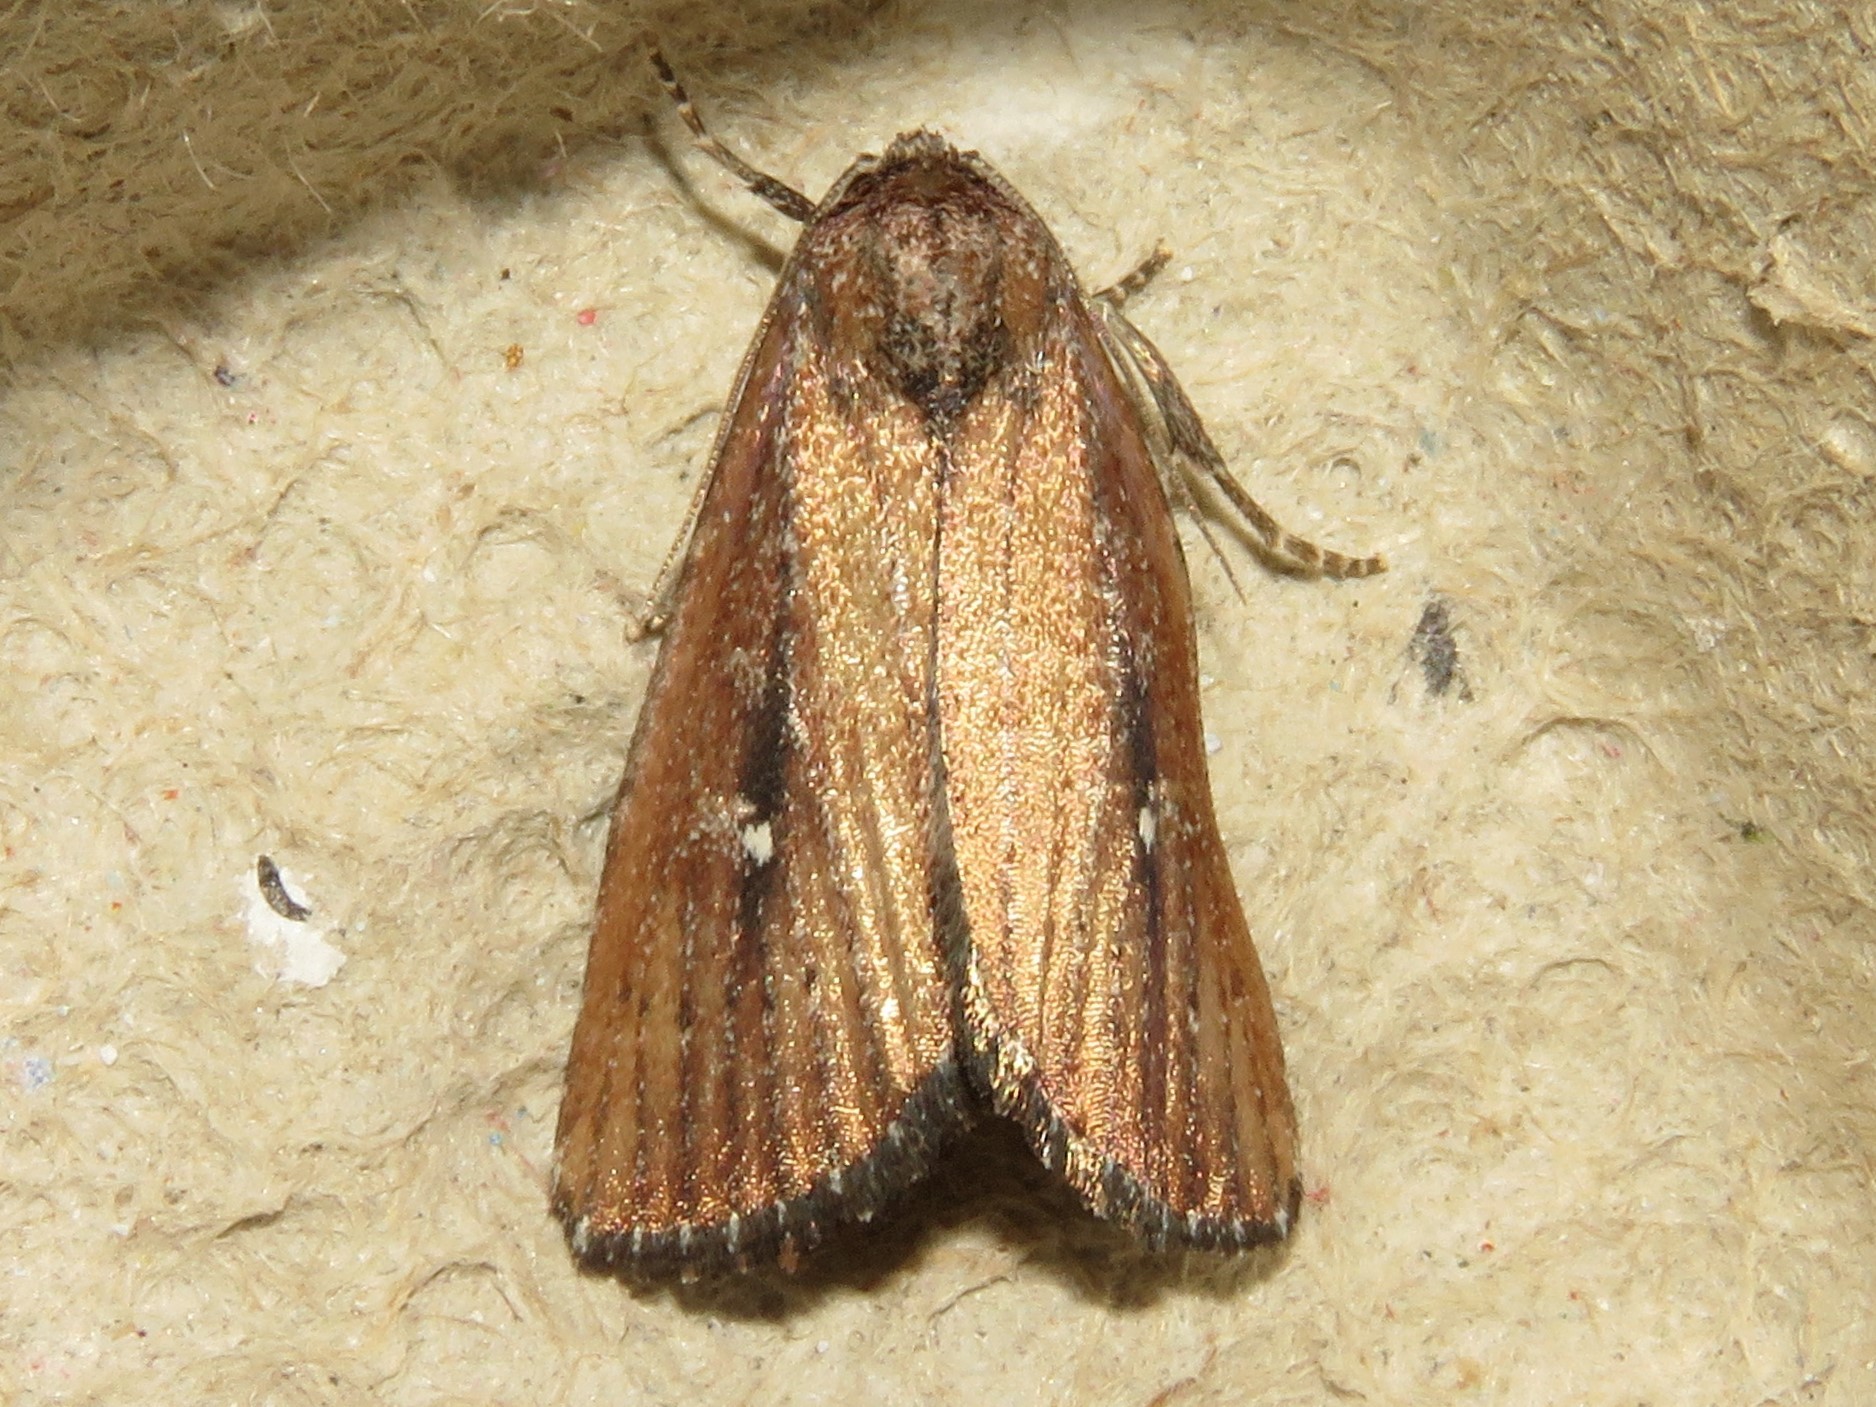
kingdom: Animalia
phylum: Arthropoda
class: Insecta
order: Lepidoptera
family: Noctuidae
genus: Condica
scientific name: Condica videns
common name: White-dotted groundling
